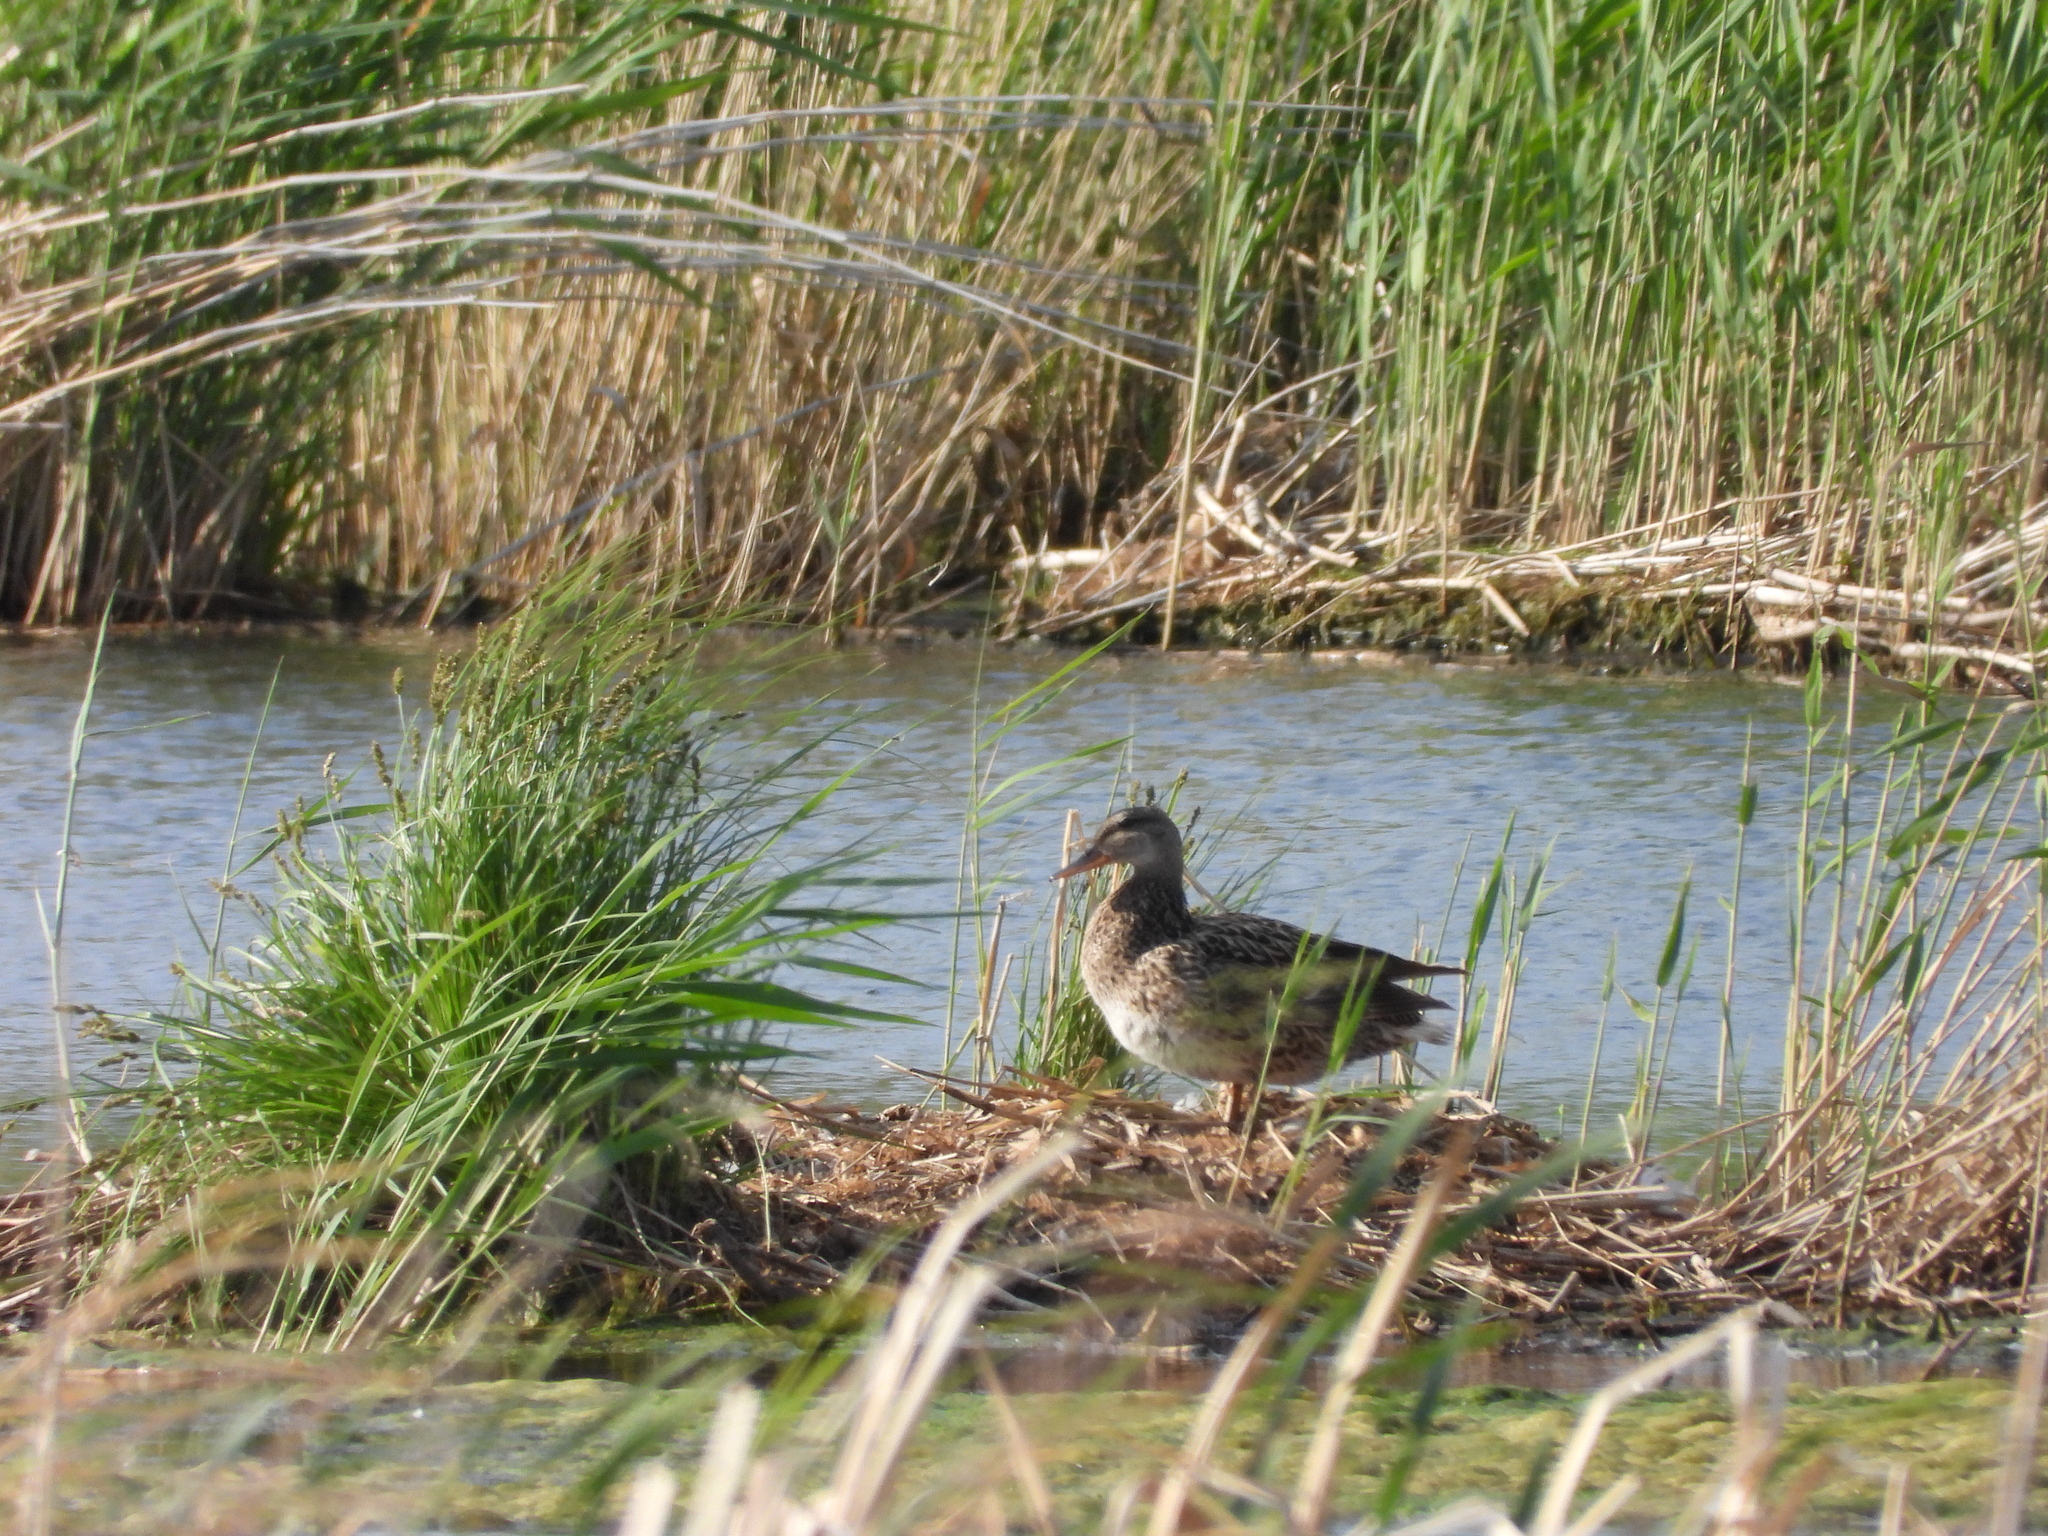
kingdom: Animalia
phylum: Chordata
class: Aves
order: Anseriformes
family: Anatidae
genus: Spatula
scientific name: Spatula querquedula
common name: Garganey
